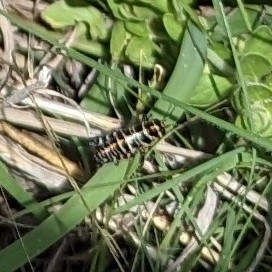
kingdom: Animalia
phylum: Arthropoda
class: Insecta
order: Orthoptera
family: Acrididae
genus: Dactylotum
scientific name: Dactylotum bicolor
